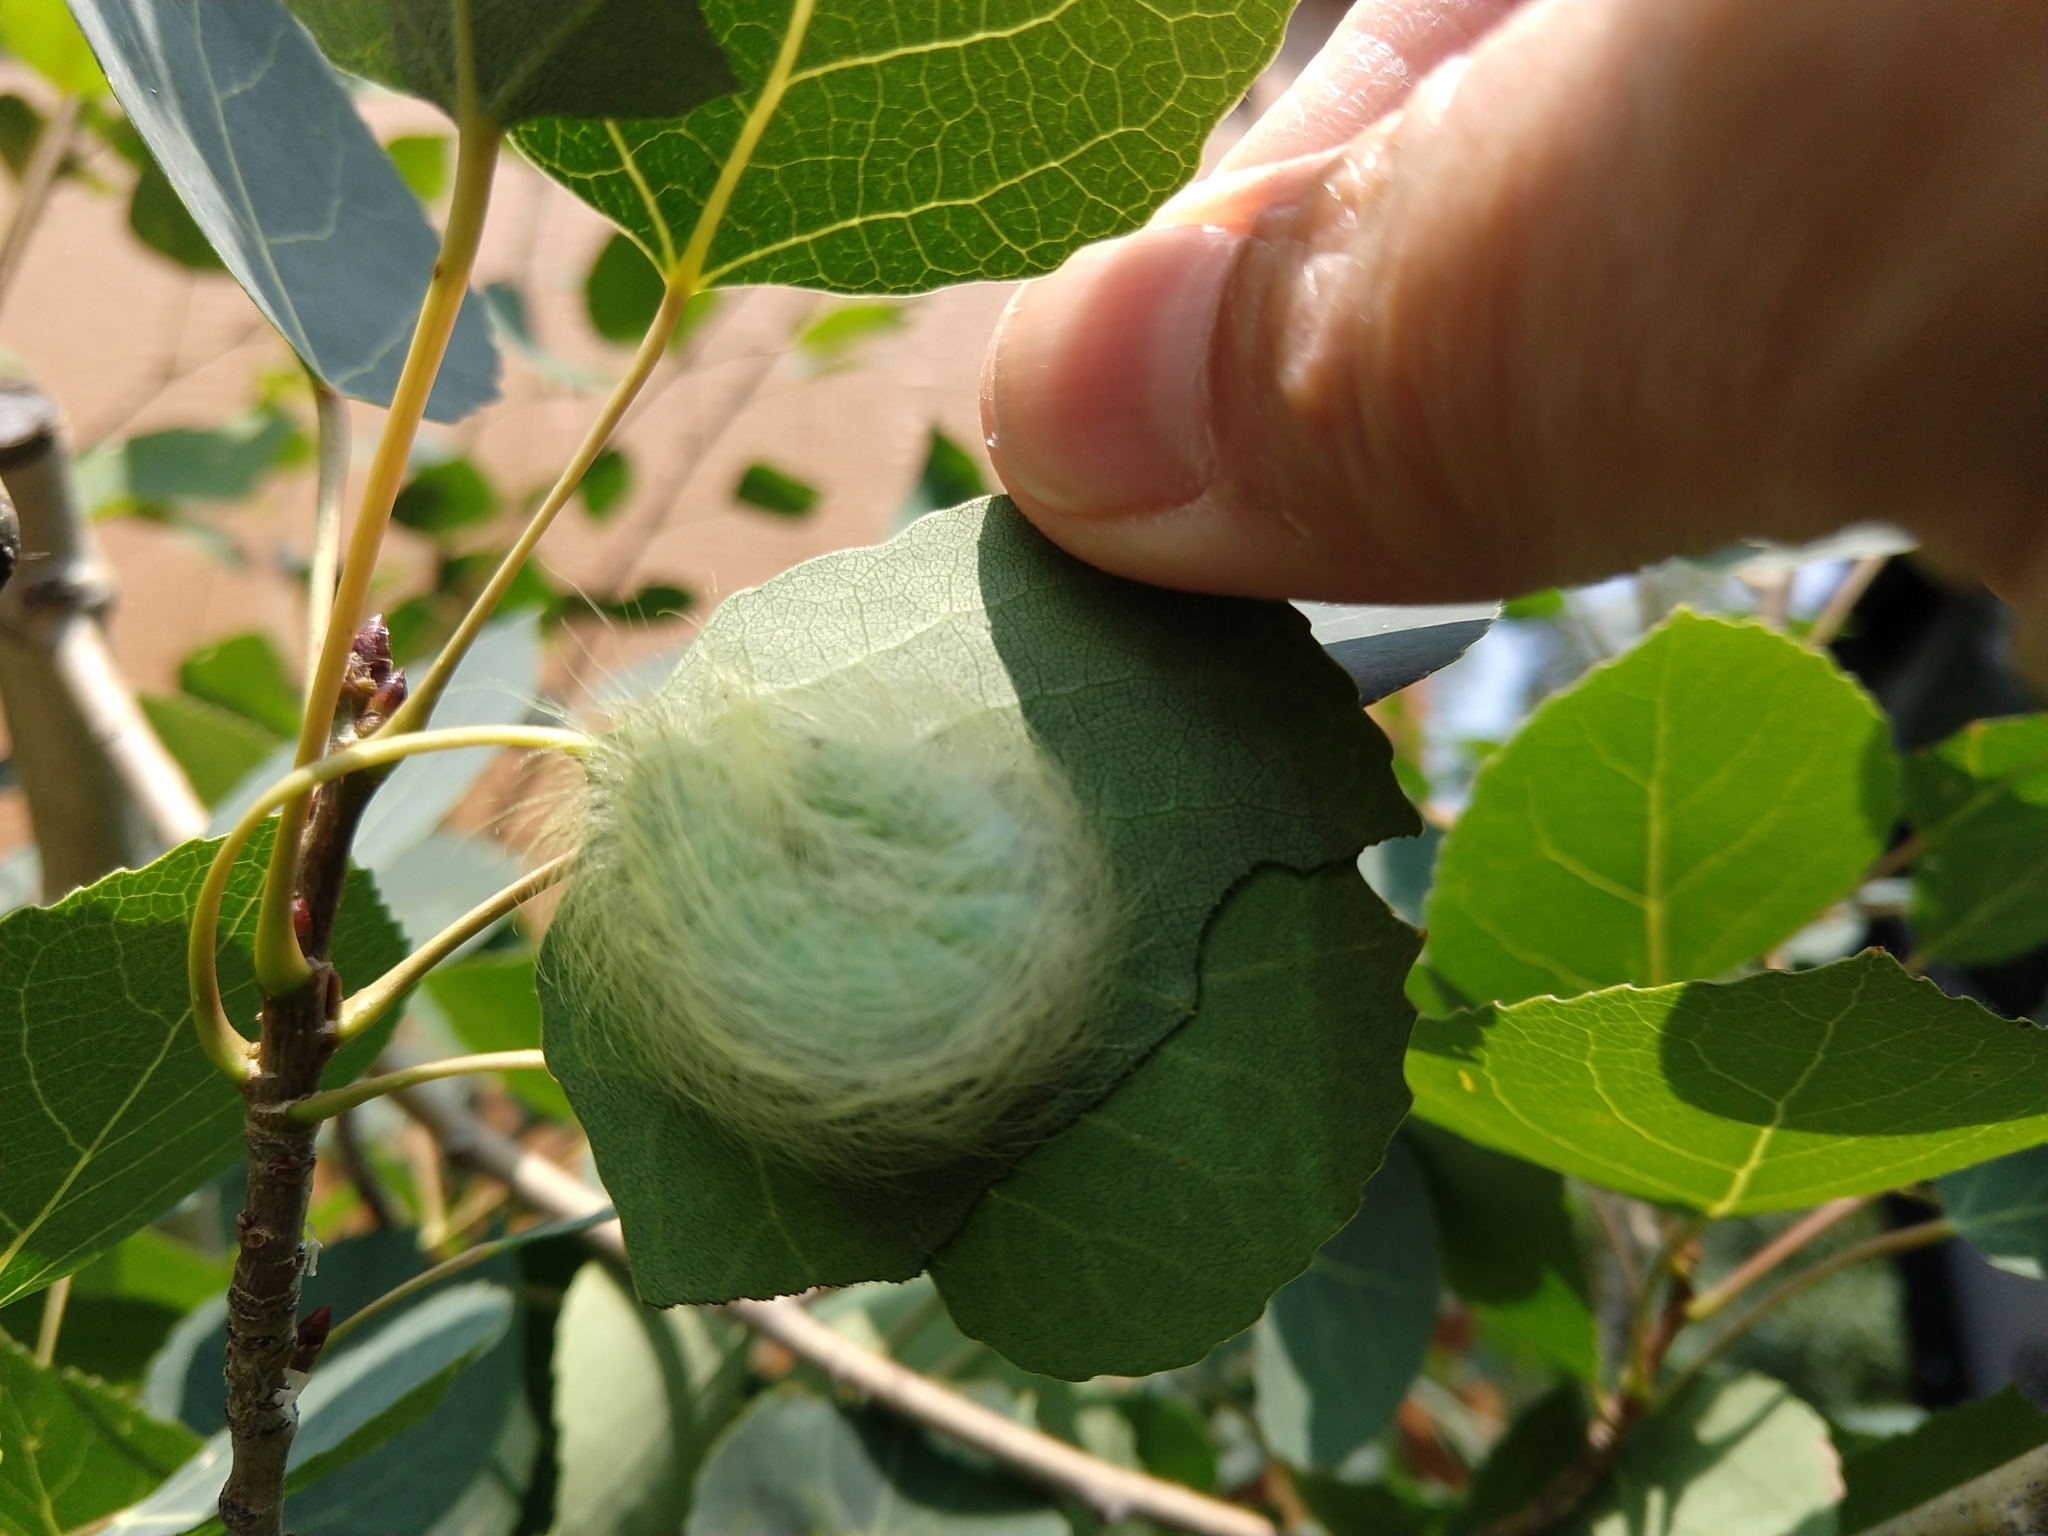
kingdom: Animalia
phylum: Arthropoda
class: Insecta
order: Lepidoptera
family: Noctuidae
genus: Acronicta
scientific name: Acronicta vulpina
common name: Miller dagger
